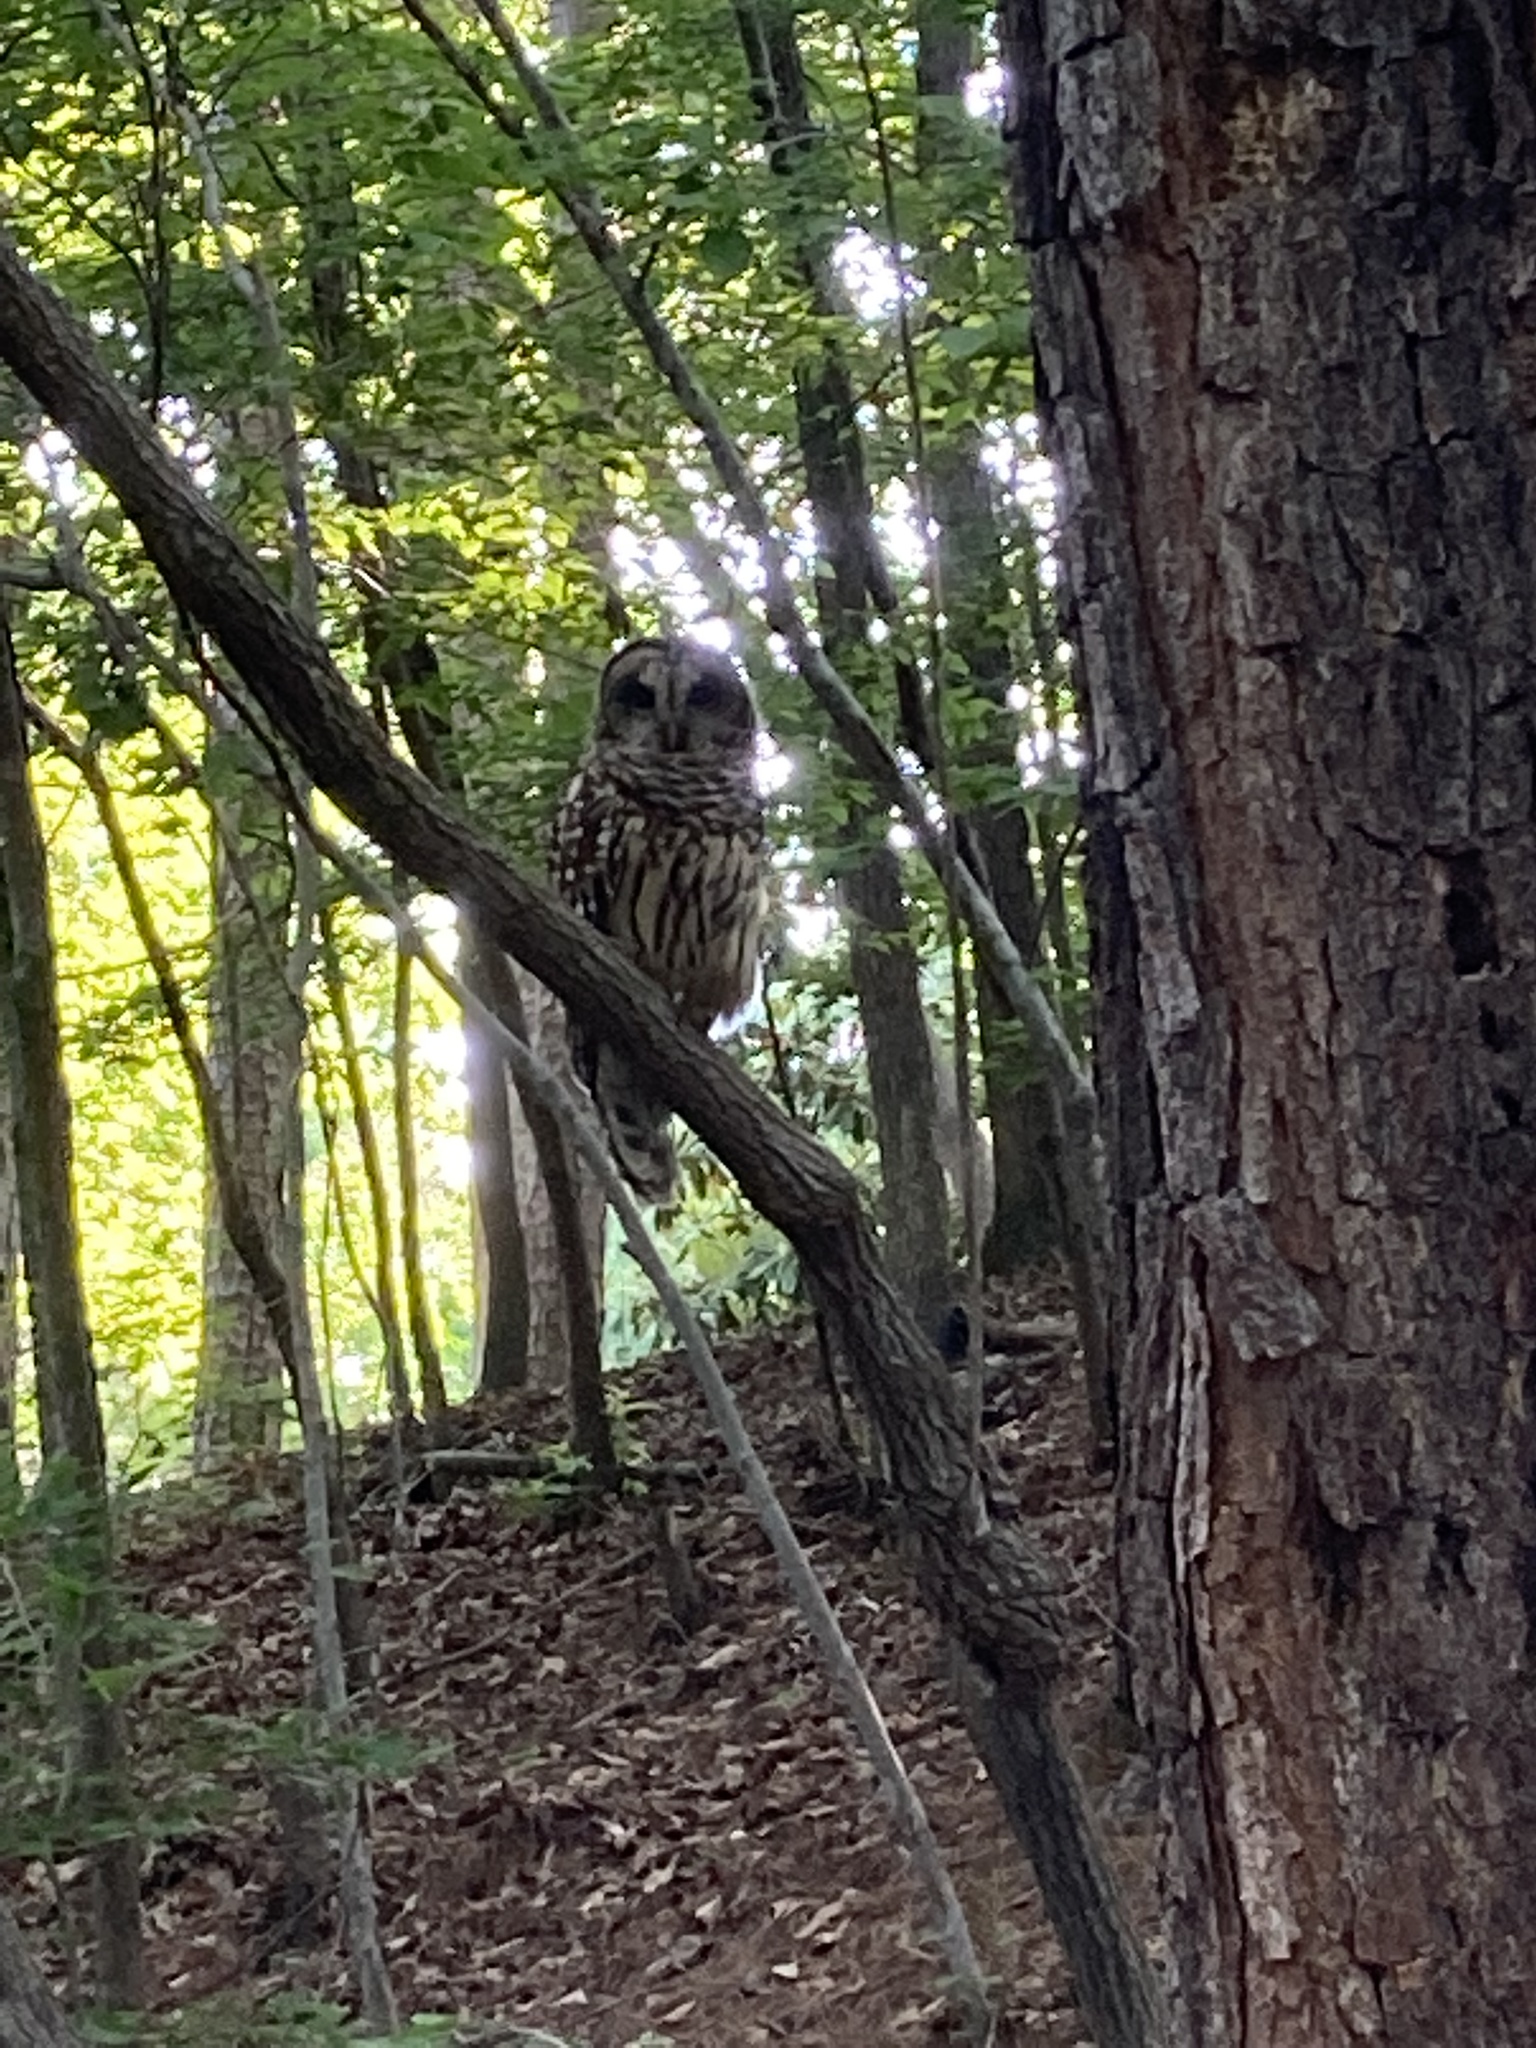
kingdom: Animalia
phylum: Chordata
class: Aves
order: Strigiformes
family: Strigidae
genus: Strix
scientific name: Strix varia
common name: Barred owl
